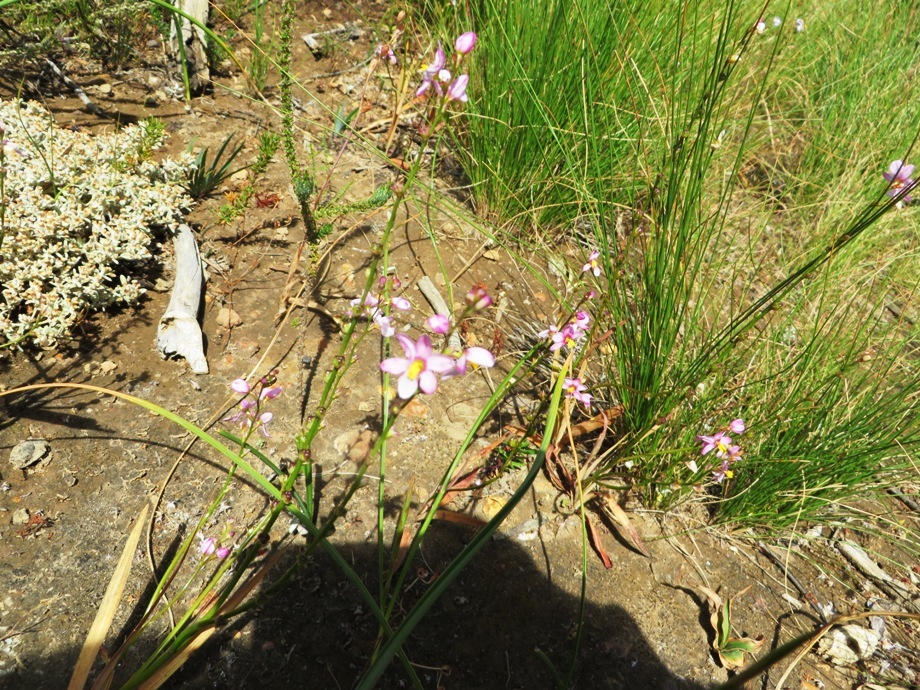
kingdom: Plantae
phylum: Tracheophyta
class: Liliopsida
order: Asparagales
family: Iridaceae
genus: Ixia
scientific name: Ixia scillaris
